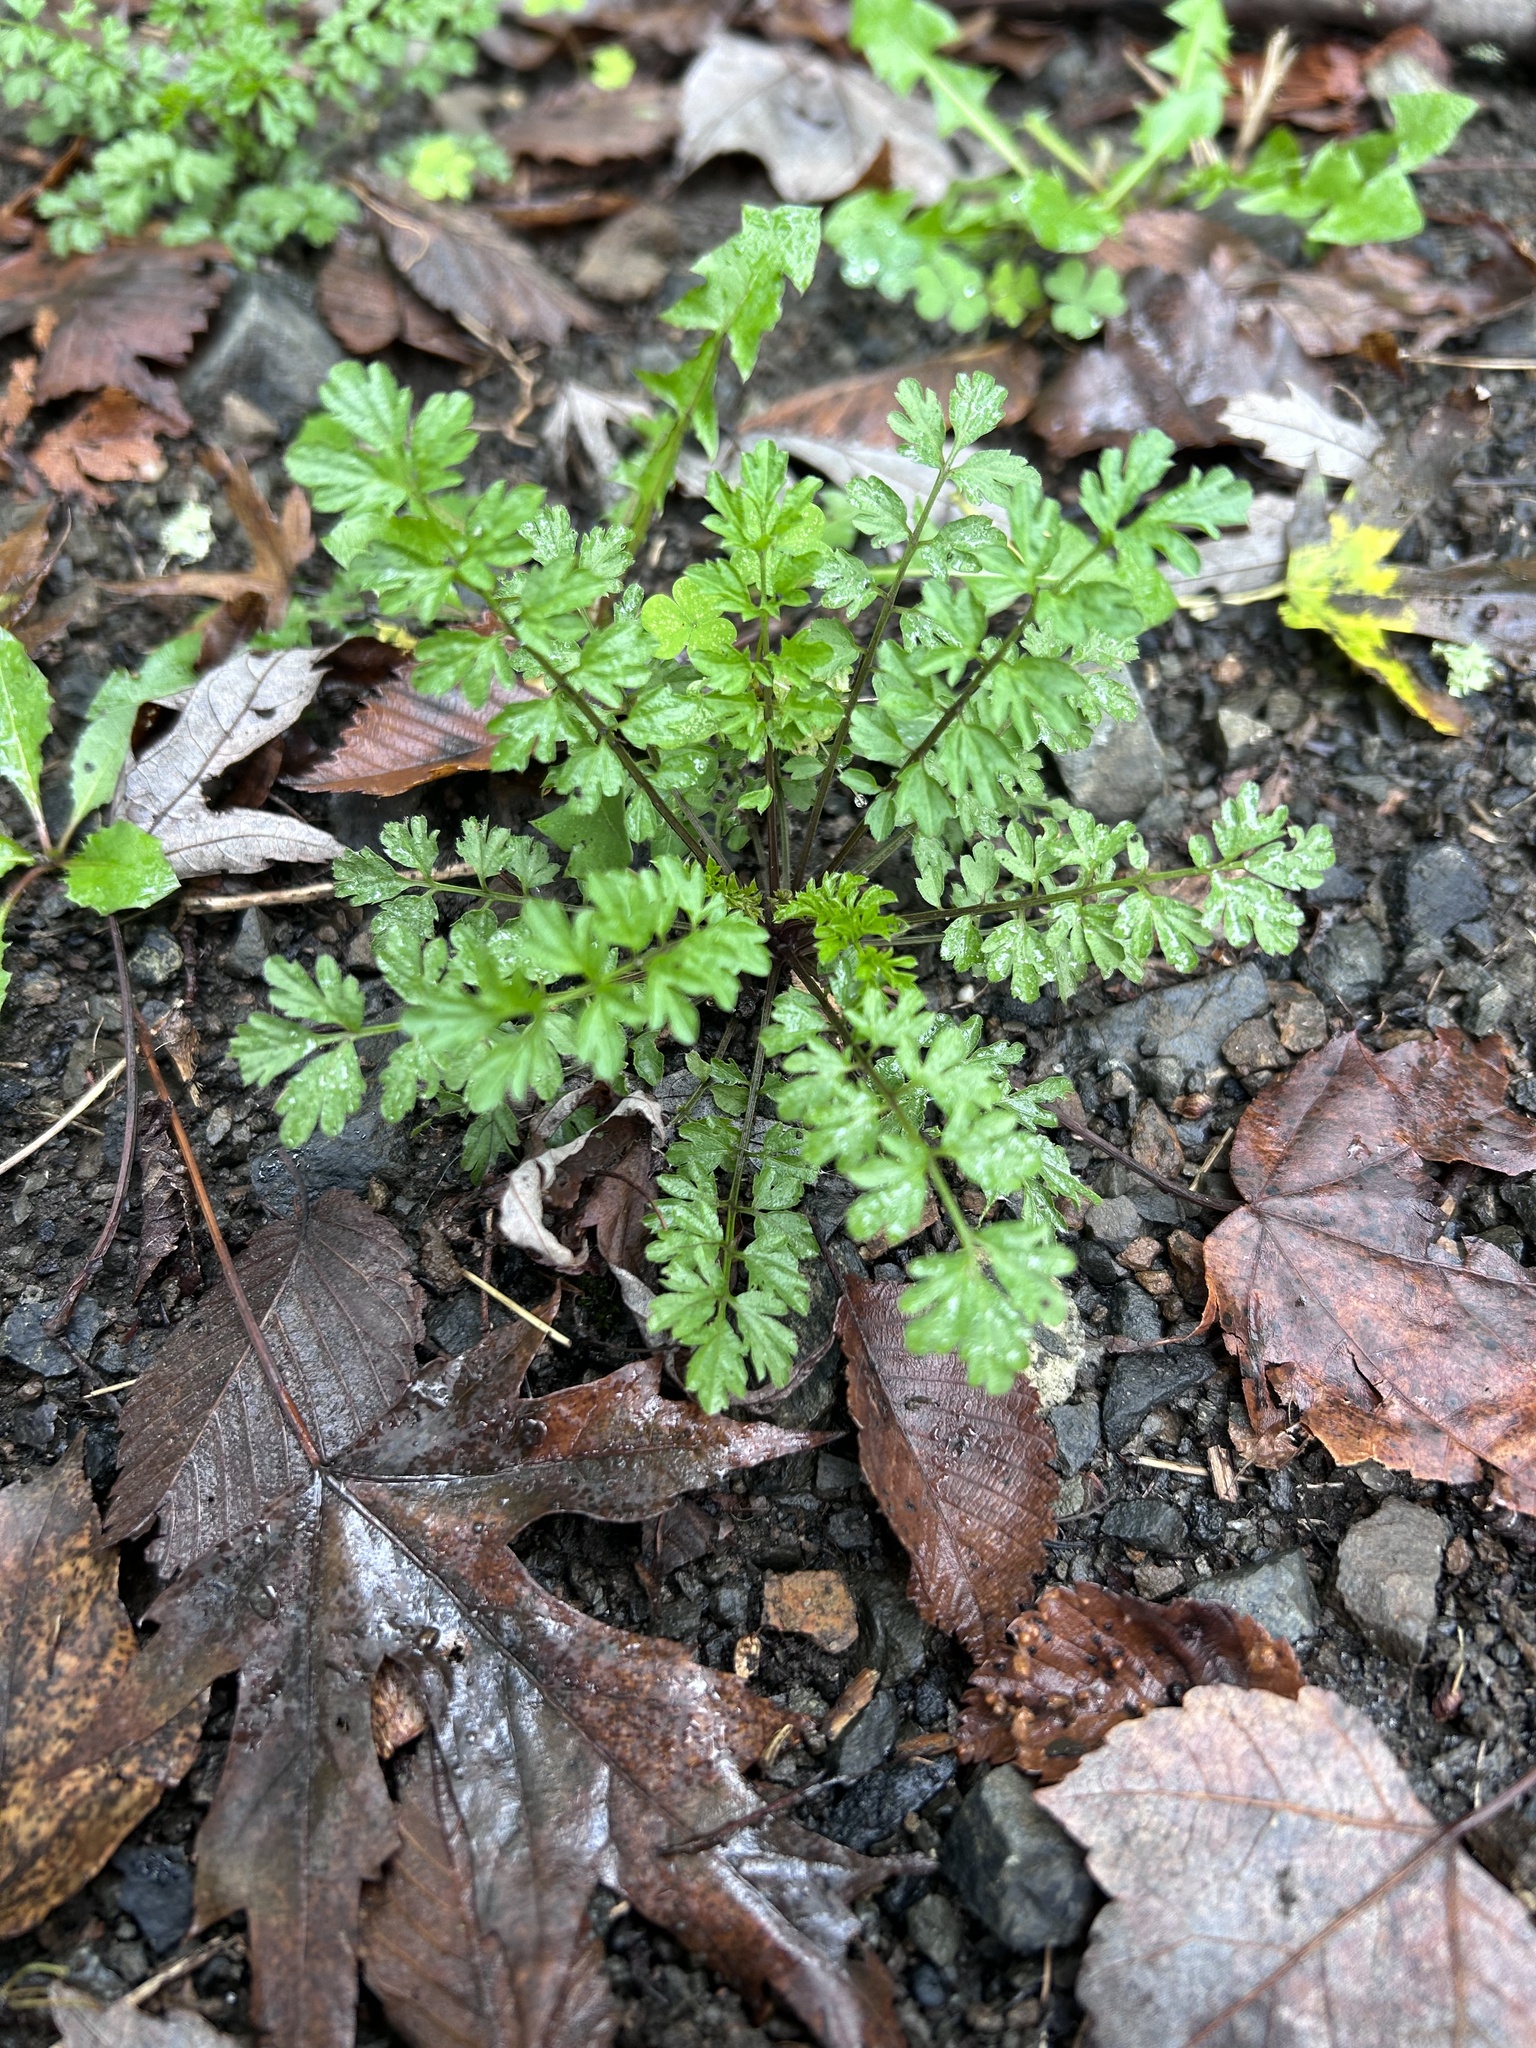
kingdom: Plantae
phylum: Tracheophyta
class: Magnoliopsida
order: Brassicales
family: Brassicaceae
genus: Cardamine
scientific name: Cardamine impatiens
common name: Narrow-leaved bitter-cress
